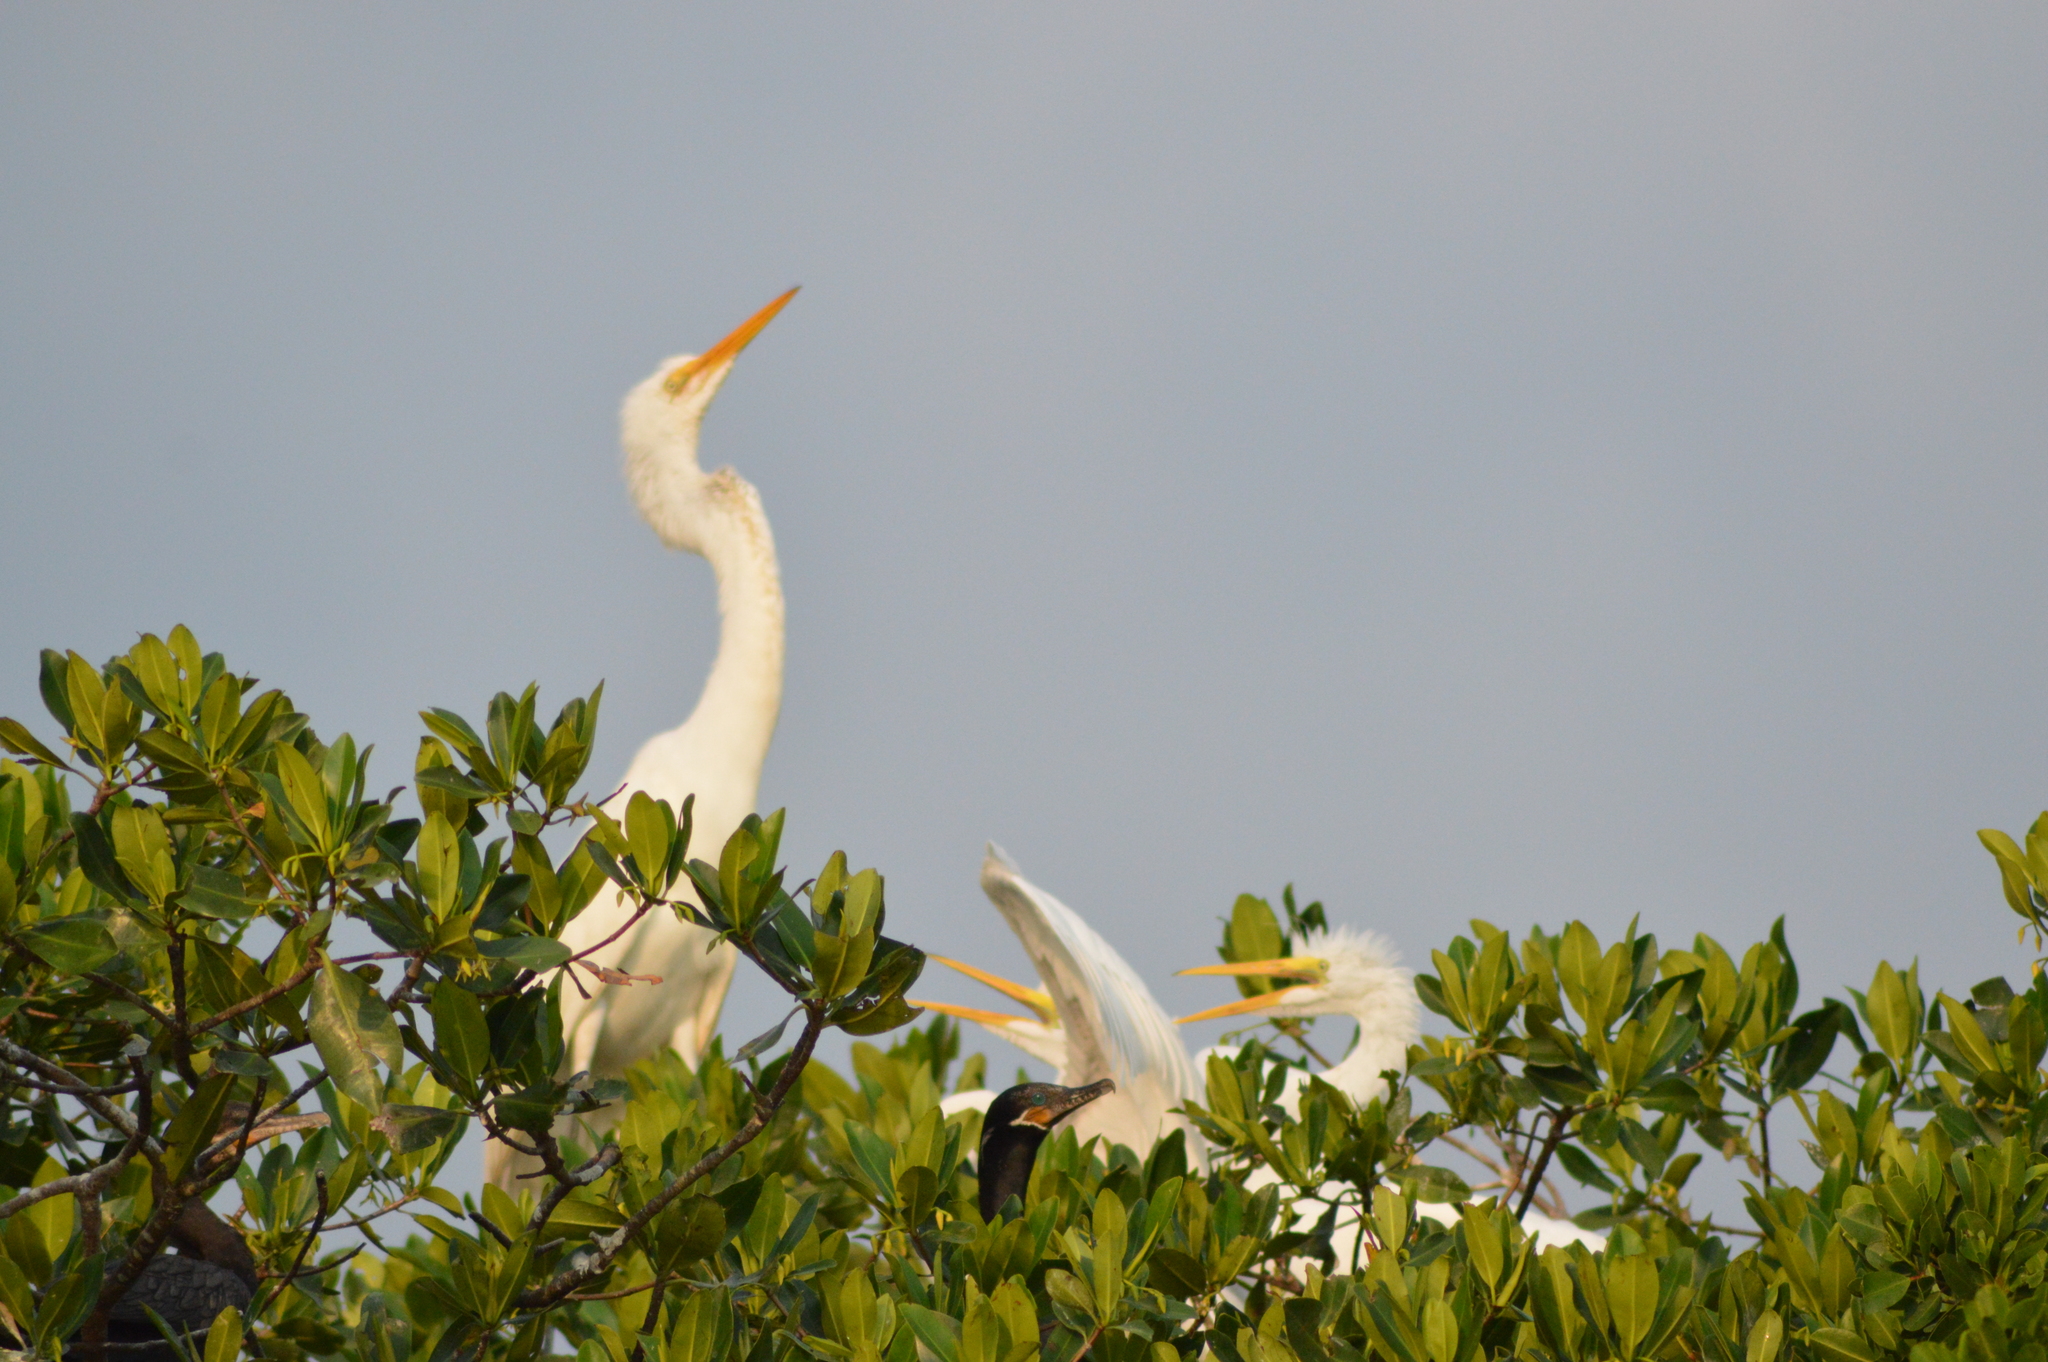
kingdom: Animalia
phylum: Chordata
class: Aves
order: Pelecaniformes
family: Ardeidae
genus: Ardea
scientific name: Ardea alba
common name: Great egret
